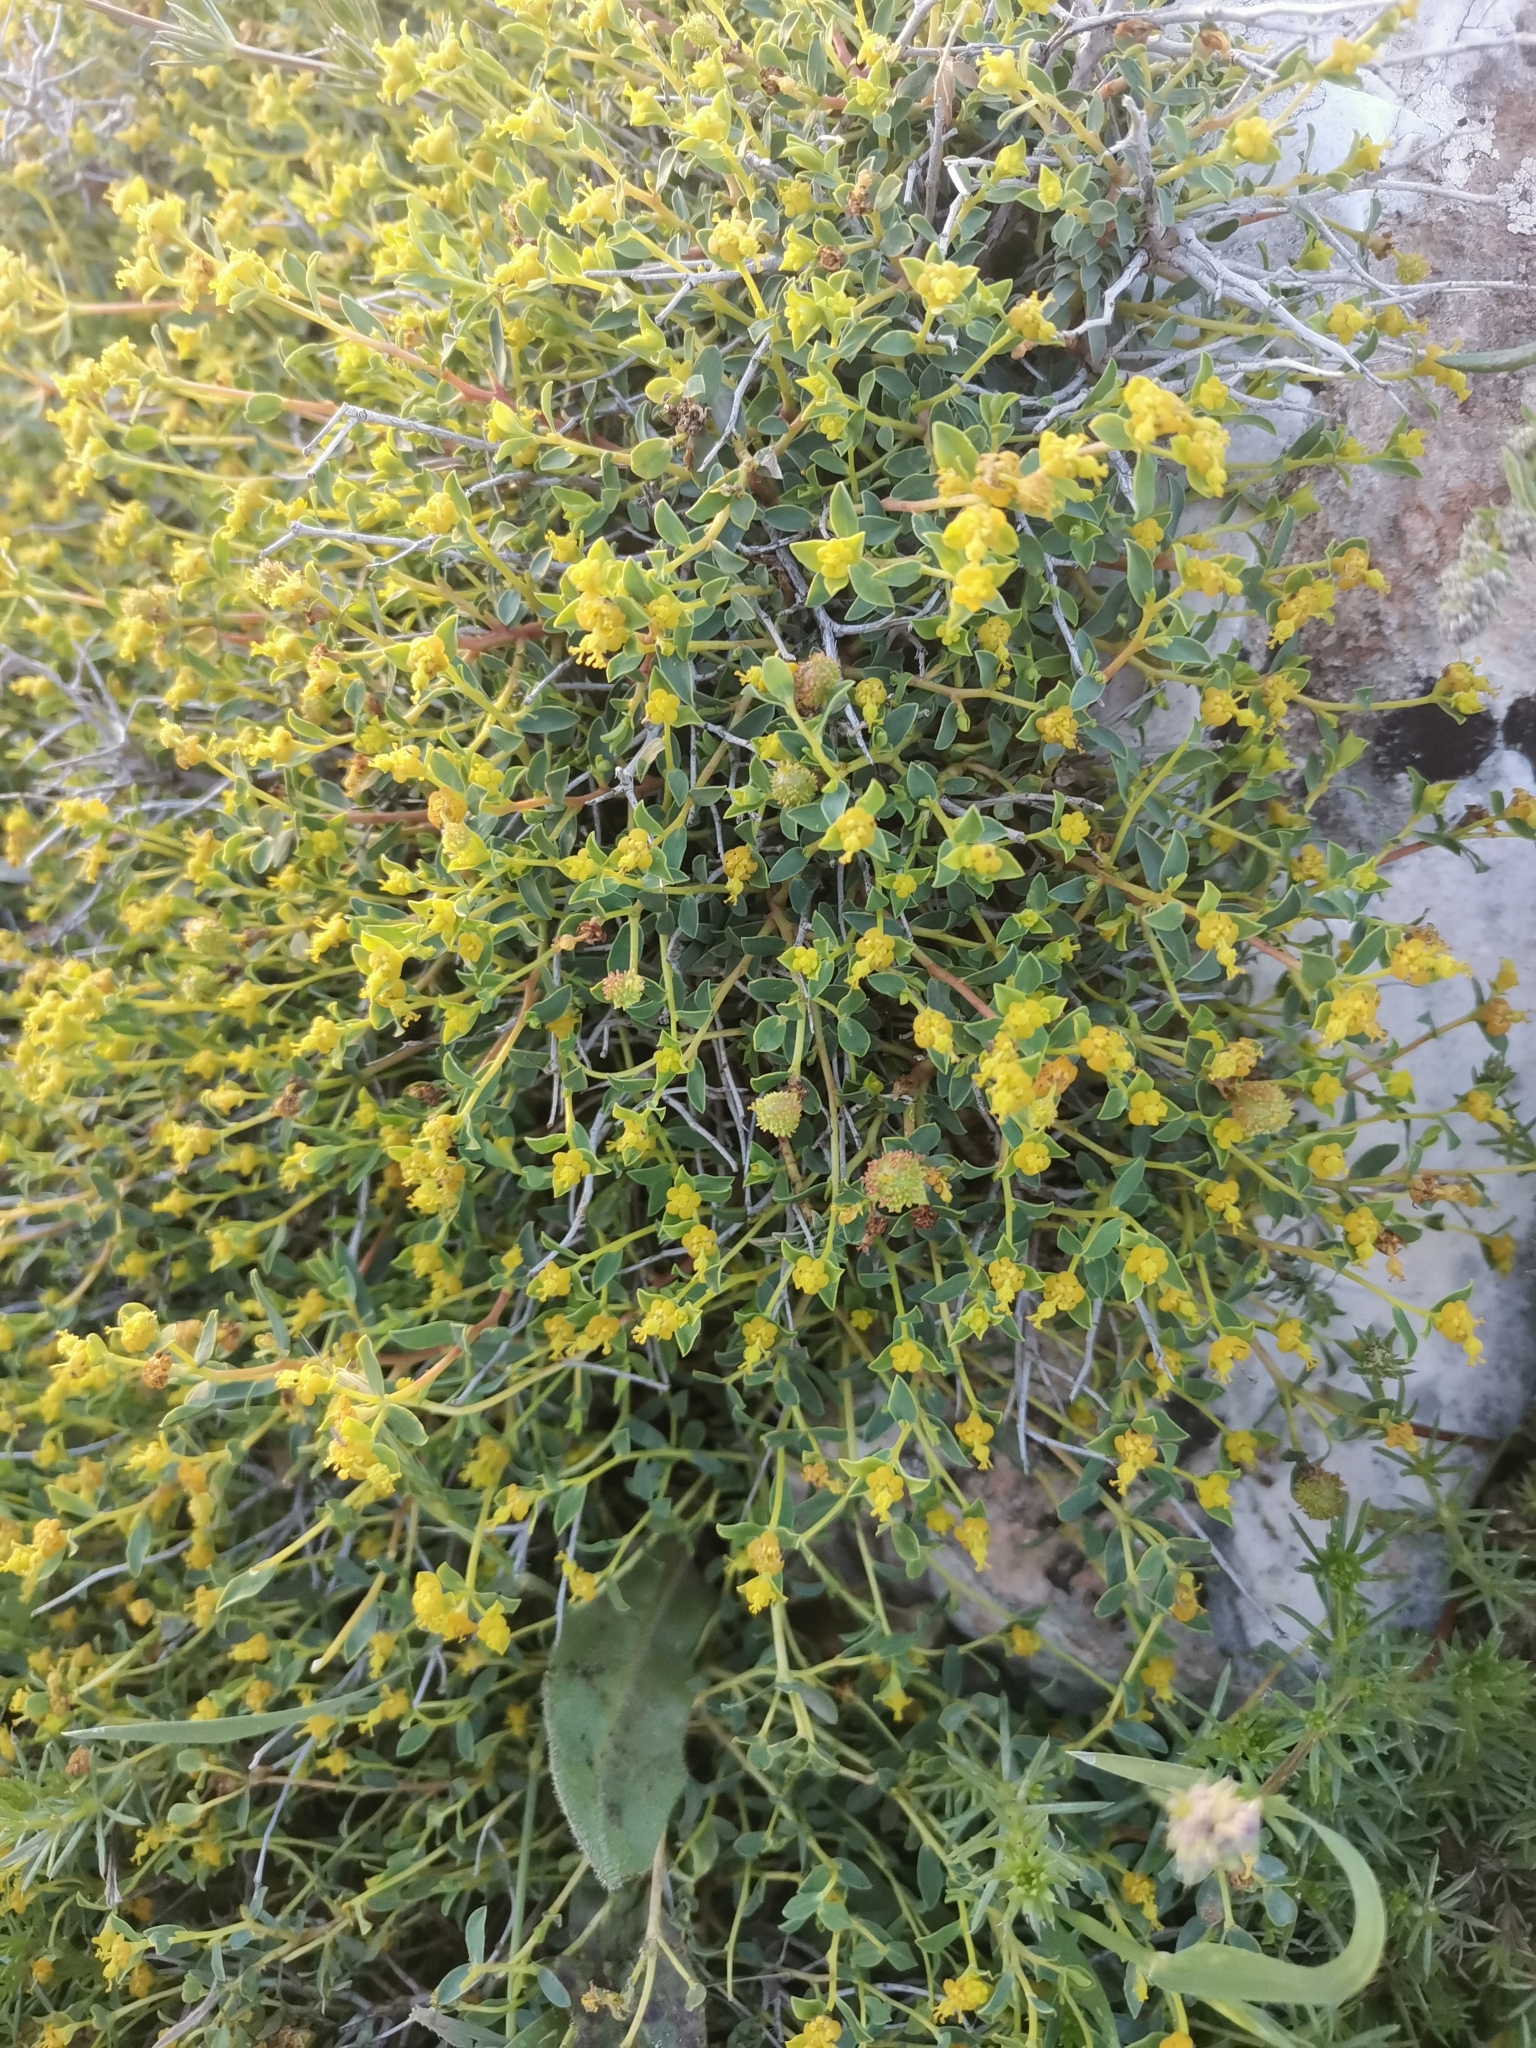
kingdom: Plantae
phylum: Tracheophyta
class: Magnoliopsida
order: Malpighiales
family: Euphorbiaceae
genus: Euphorbia
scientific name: Euphorbia spinosa
